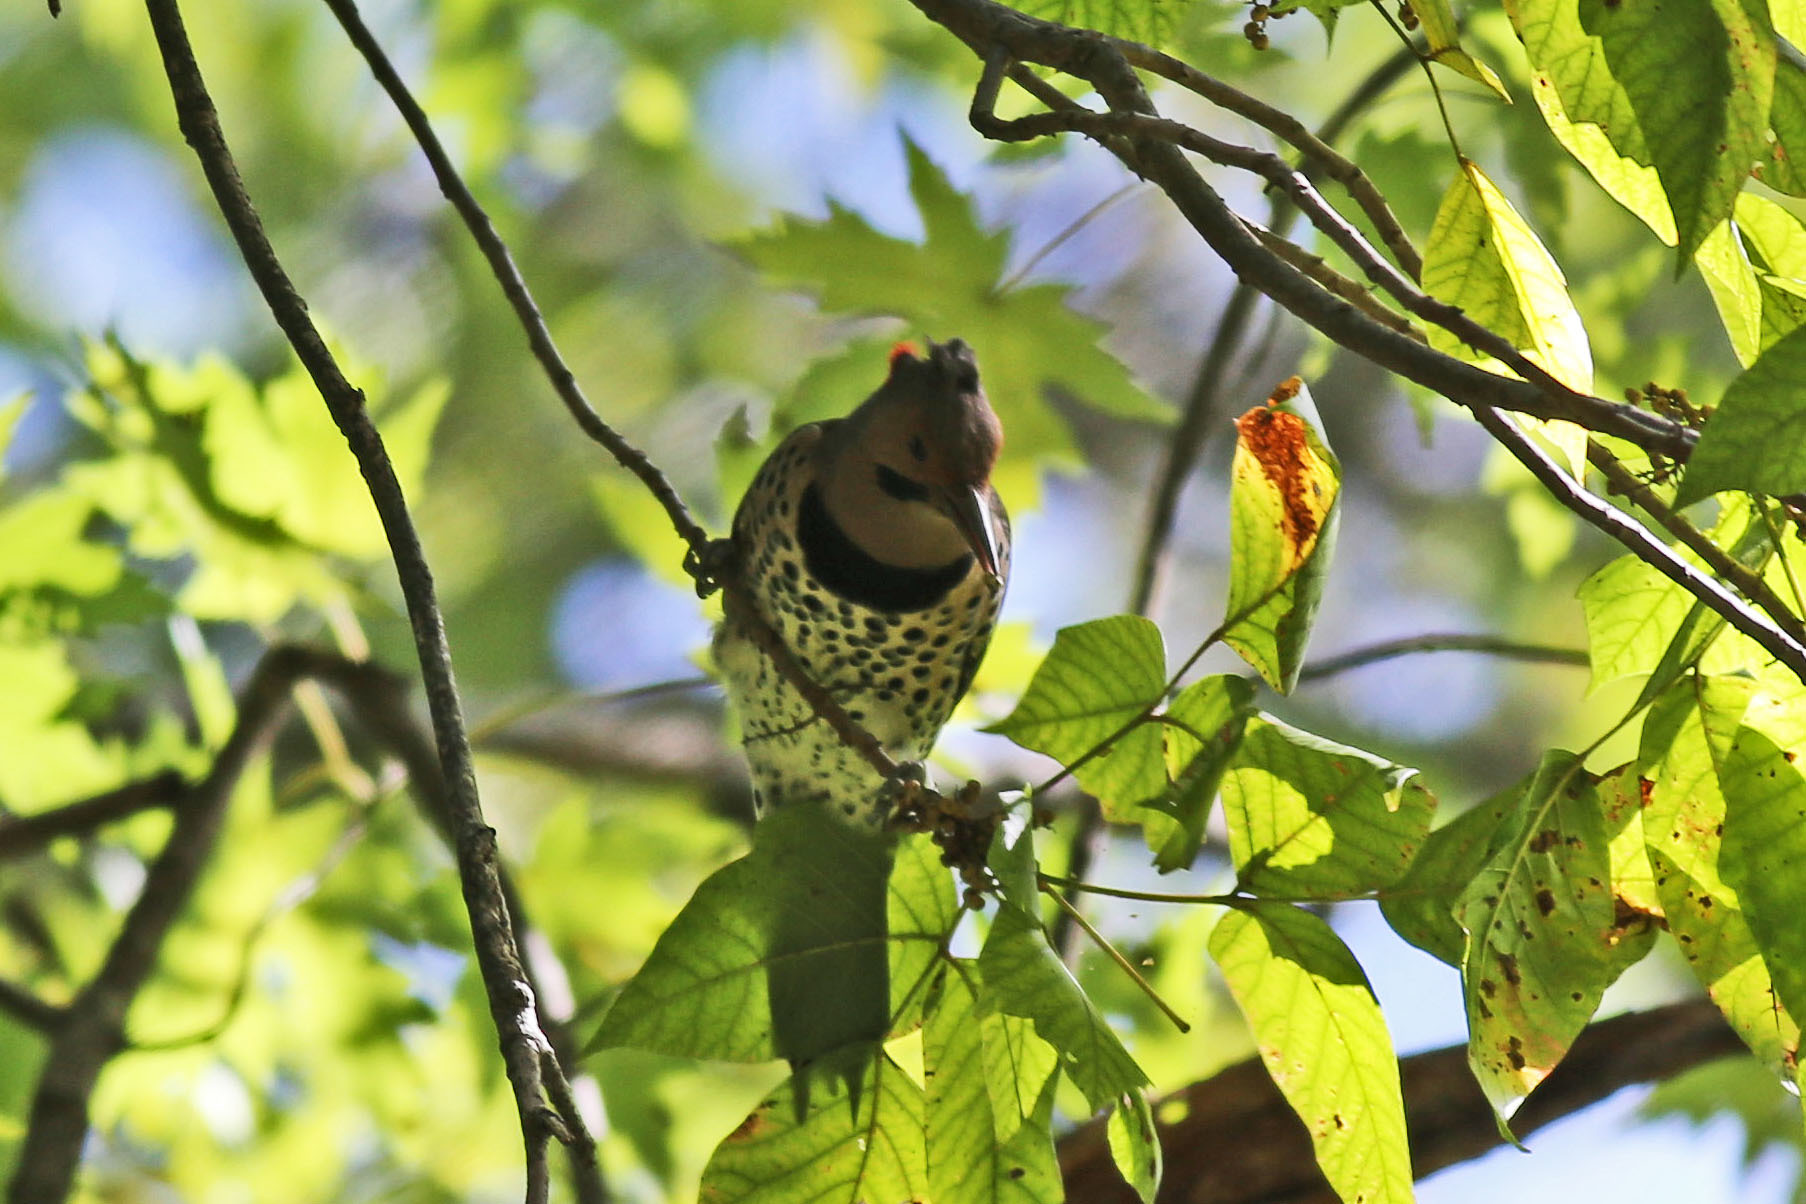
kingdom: Animalia
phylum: Chordata
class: Aves
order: Piciformes
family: Picidae
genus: Colaptes
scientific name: Colaptes auratus
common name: Northern flicker
